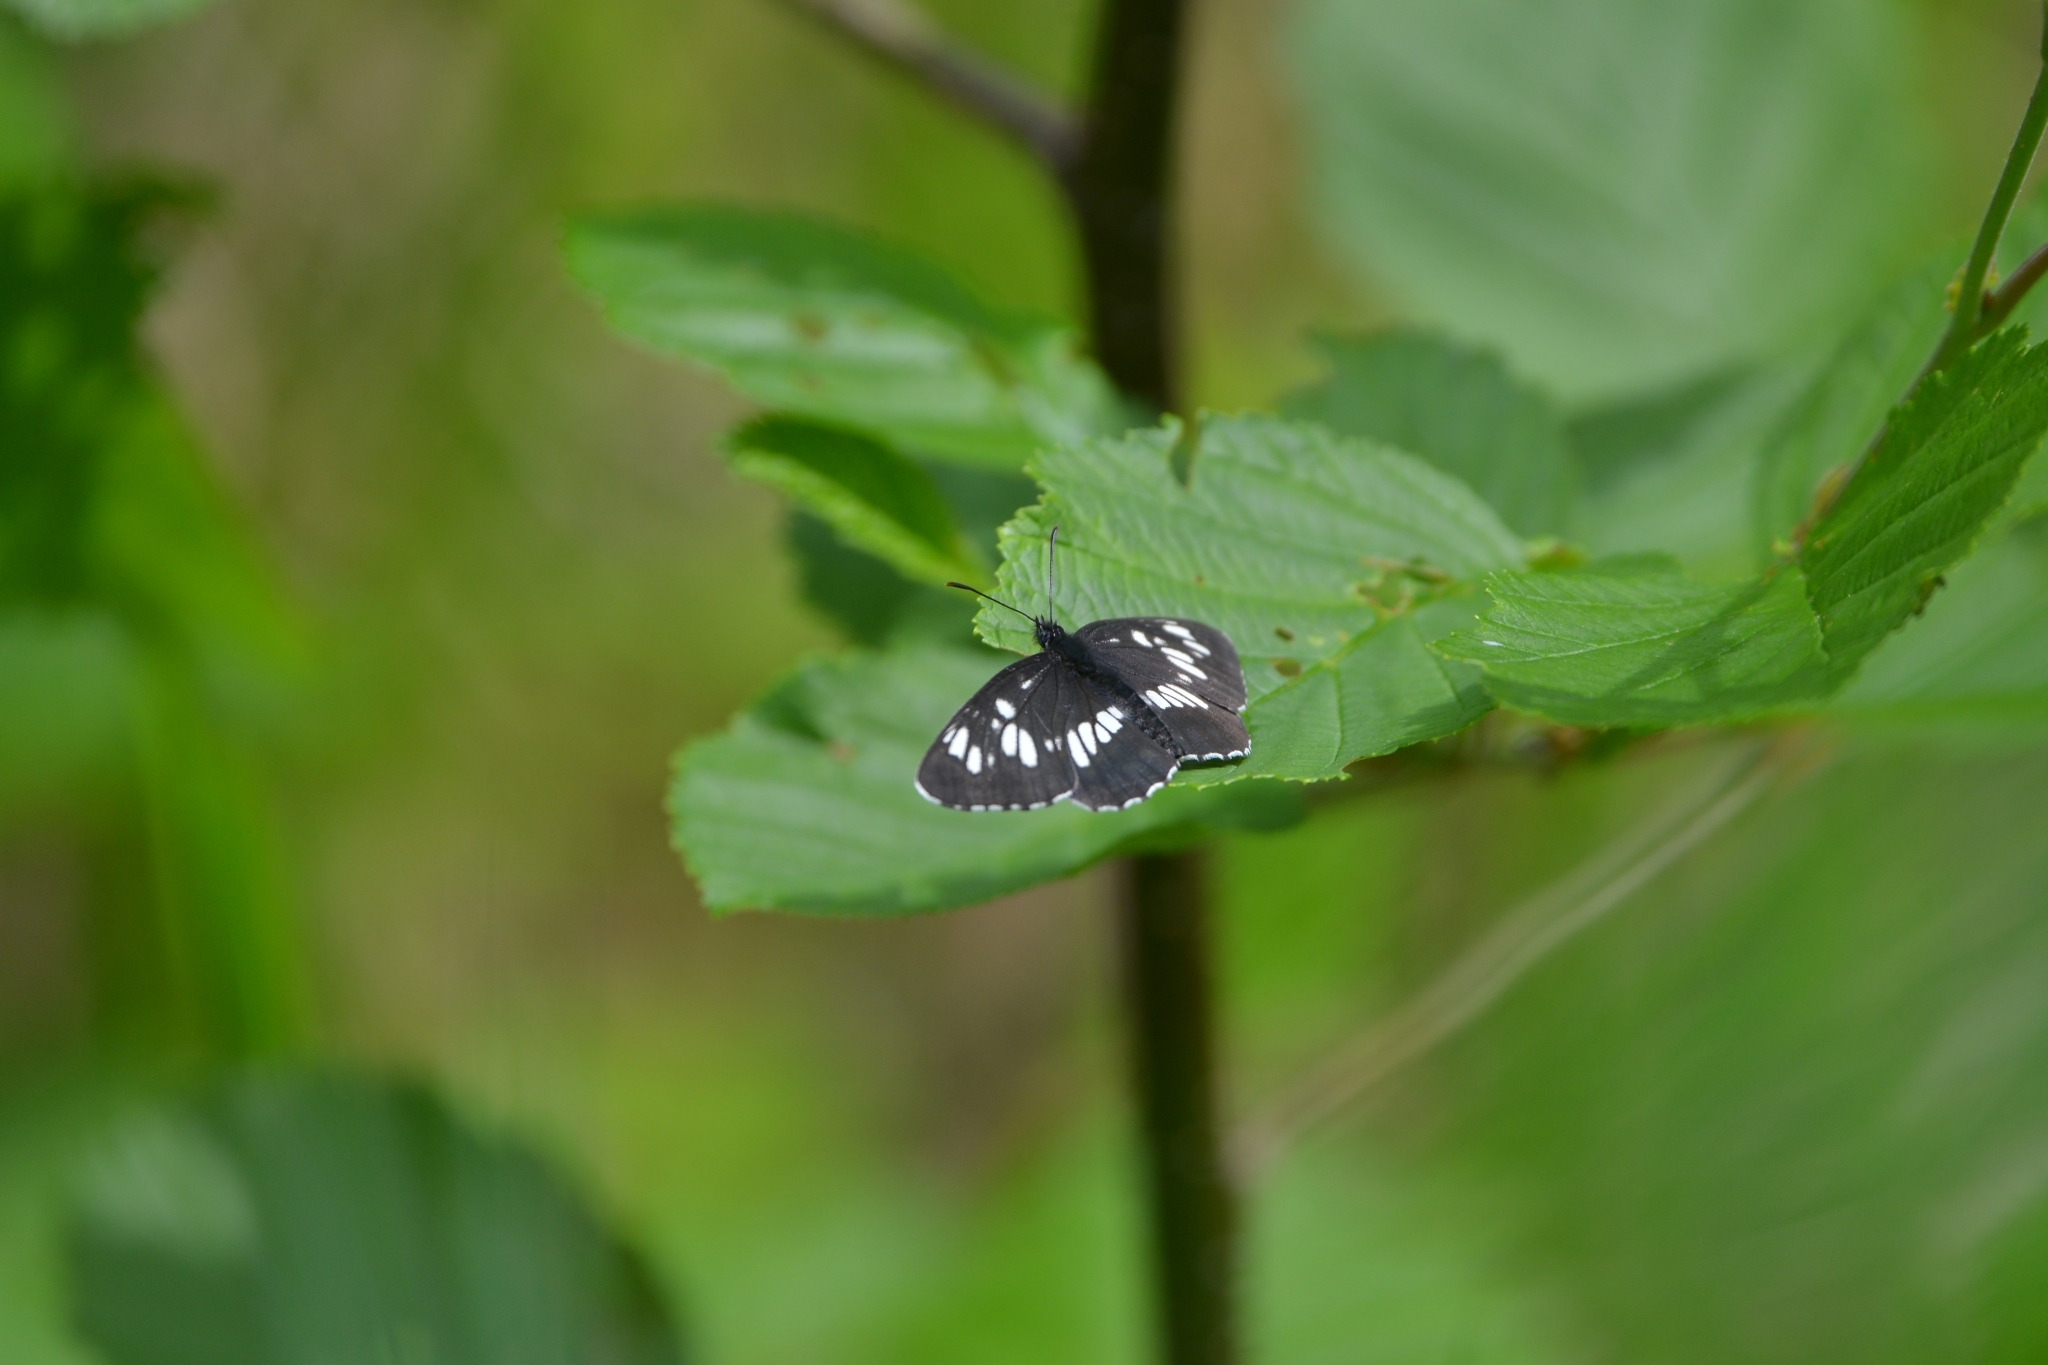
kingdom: Animalia
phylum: Arthropoda
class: Insecta
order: Lepidoptera
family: Nymphalidae
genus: Neptis
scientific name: Neptis rivularis
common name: Hungarian glider
